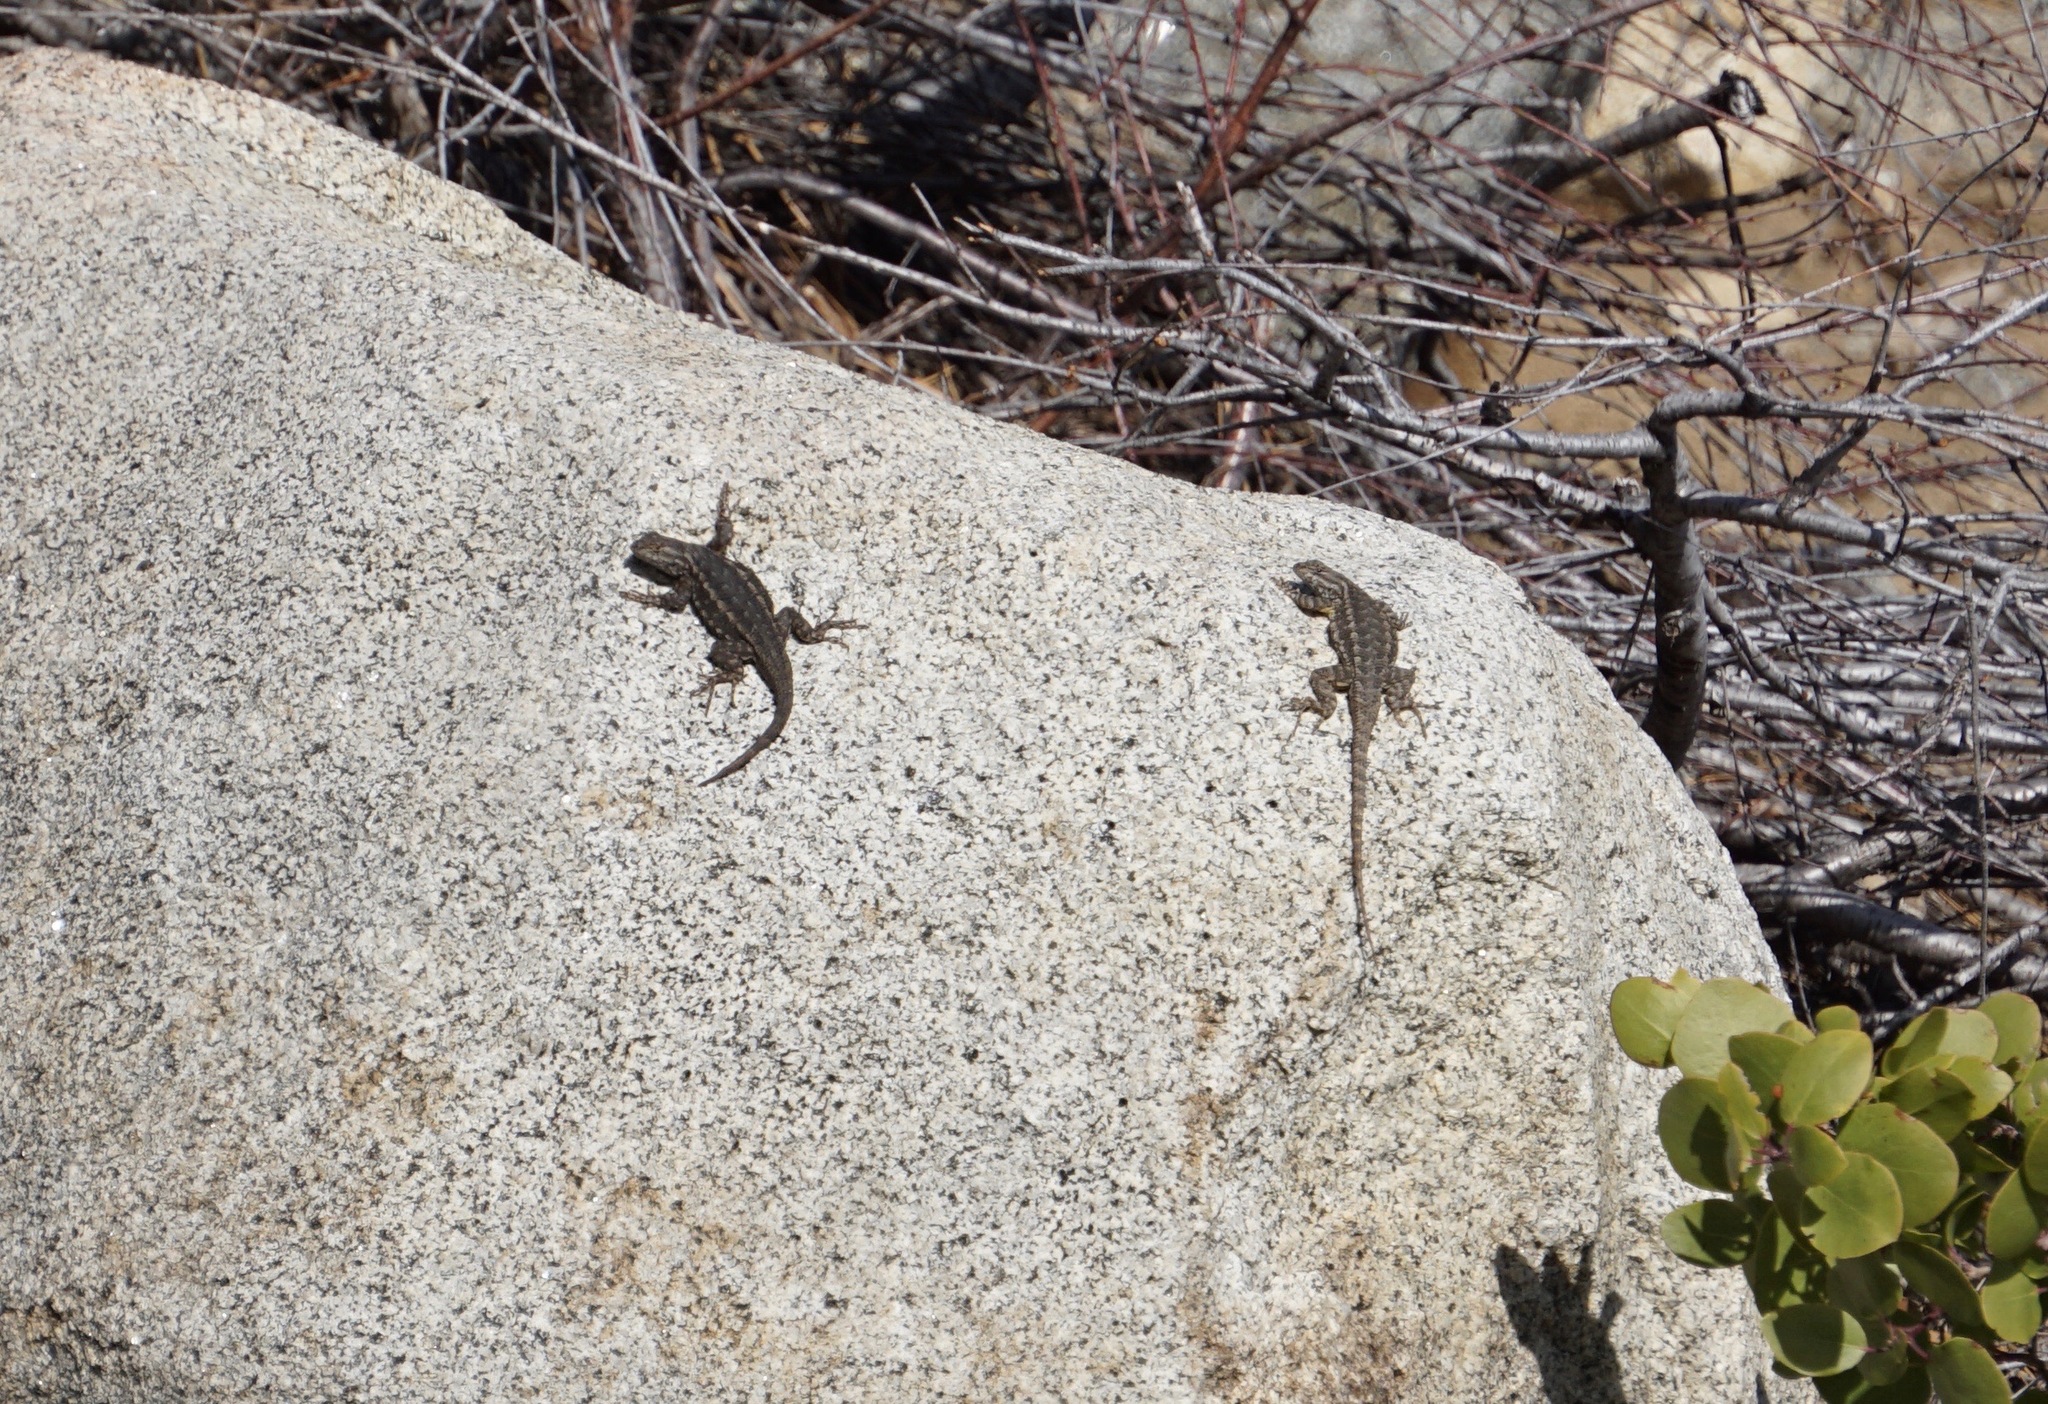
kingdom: Animalia
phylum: Chordata
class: Squamata
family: Phrynosomatidae
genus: Sceloporus
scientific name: Sceloporus occidentalis
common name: Western fence lizard
